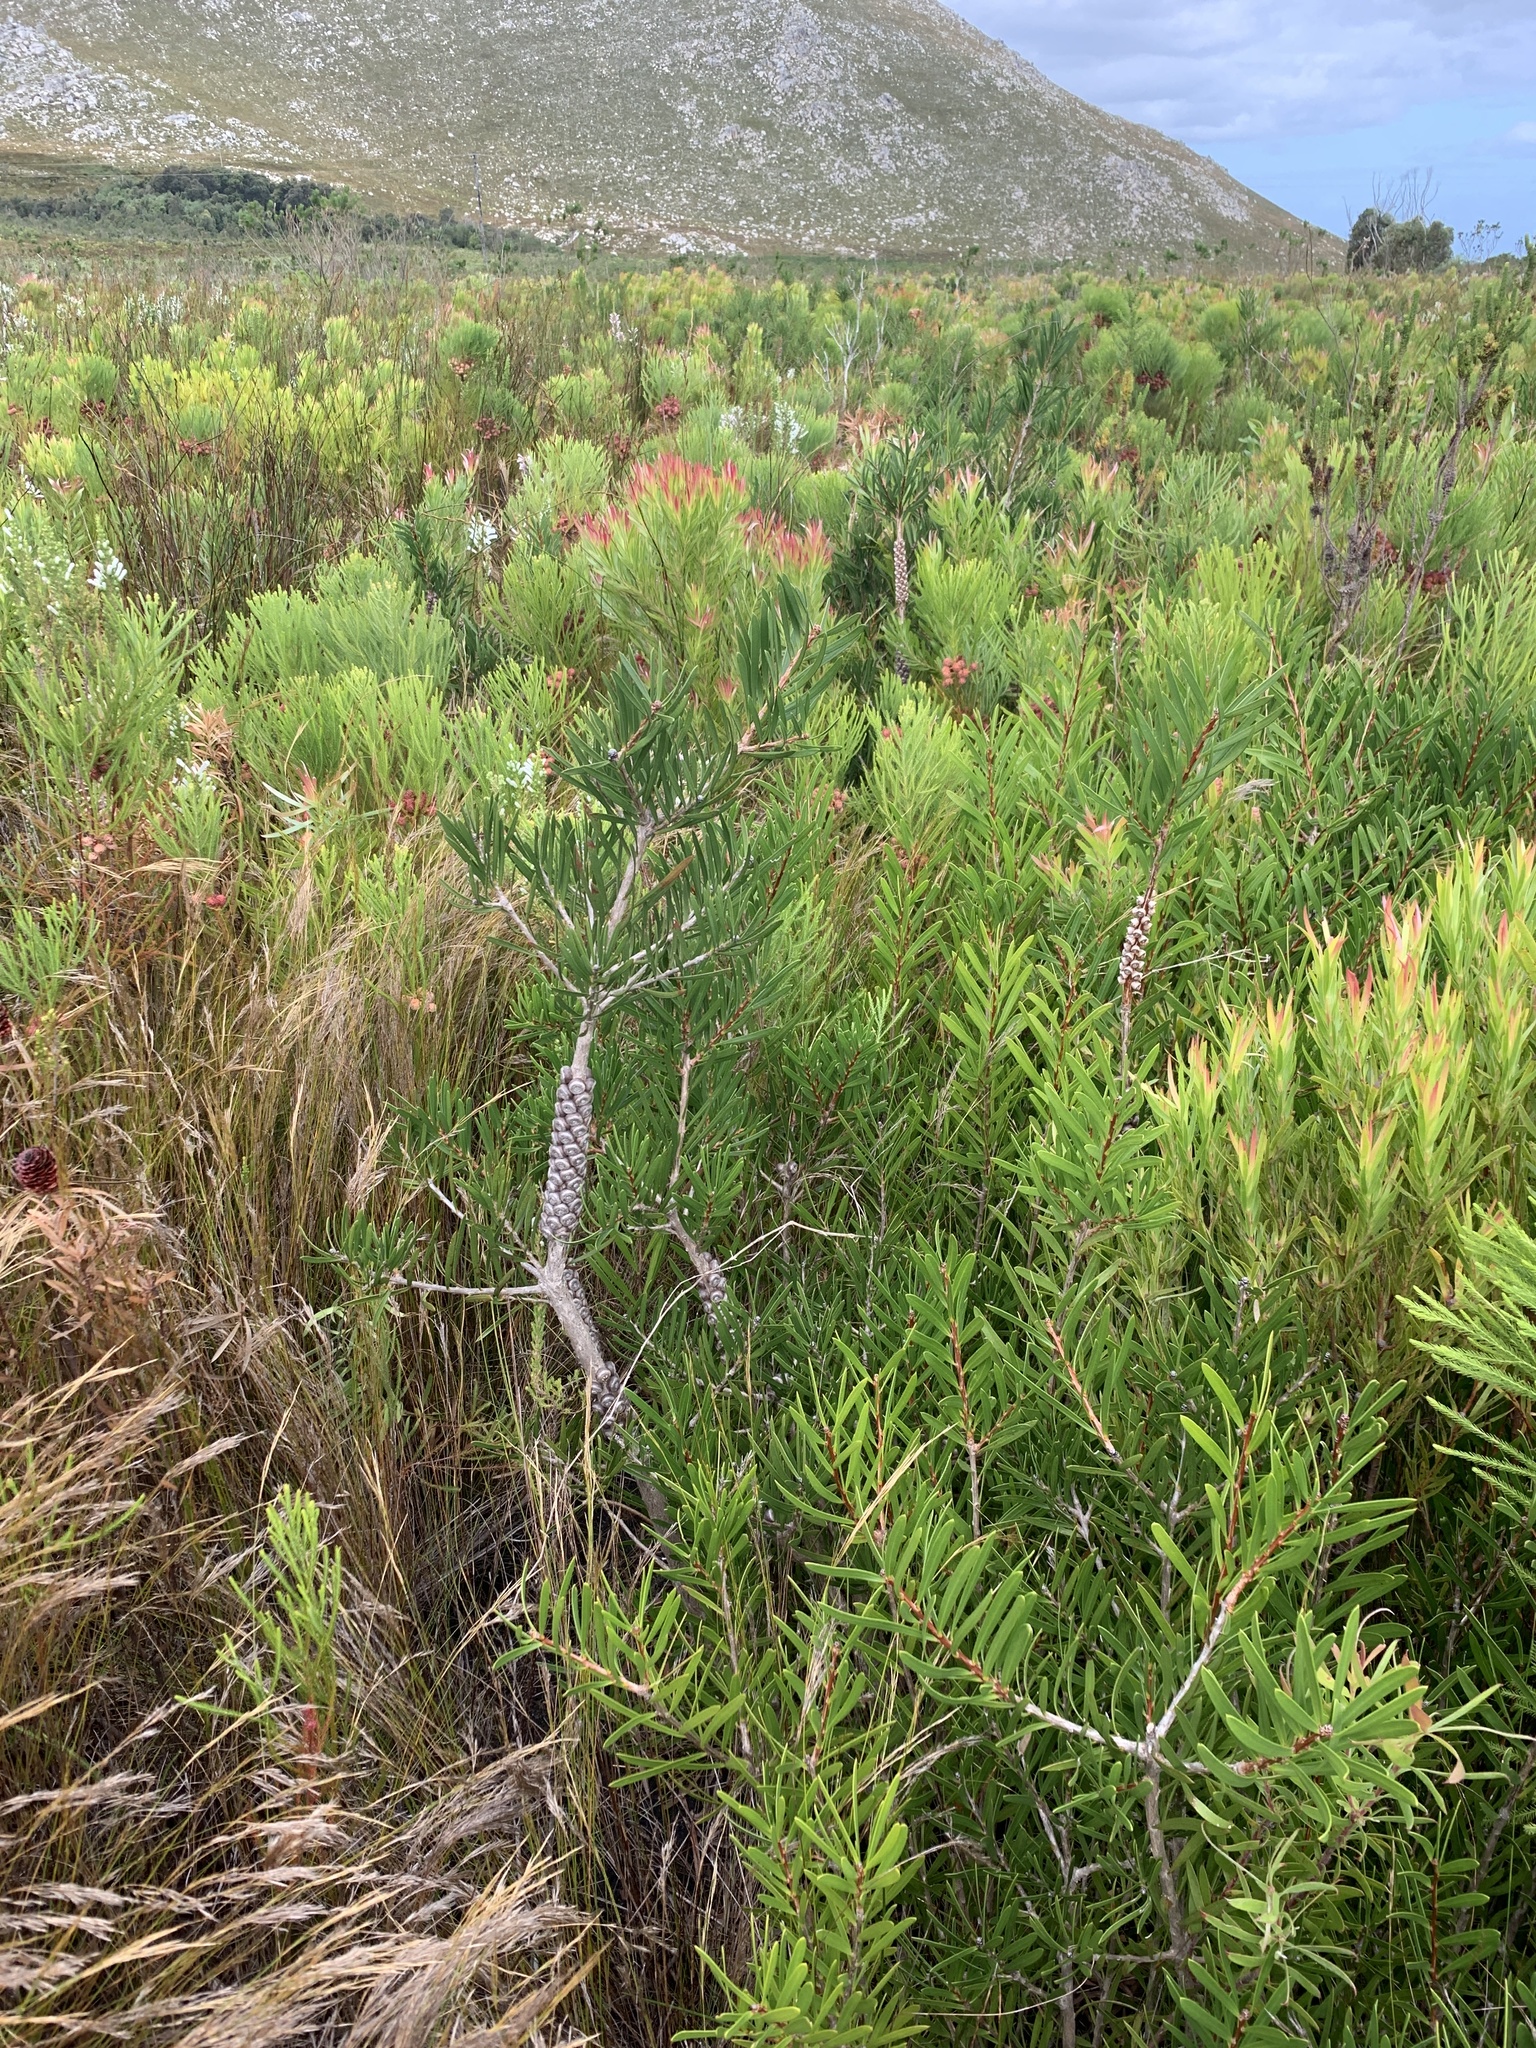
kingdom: Plantae
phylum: Tracheophyta
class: Magnoliopsida
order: Myrtales
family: Myrtaceae
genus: Callistemon
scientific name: Callistemon linearis
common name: Narrow-leaf bottlebrush
